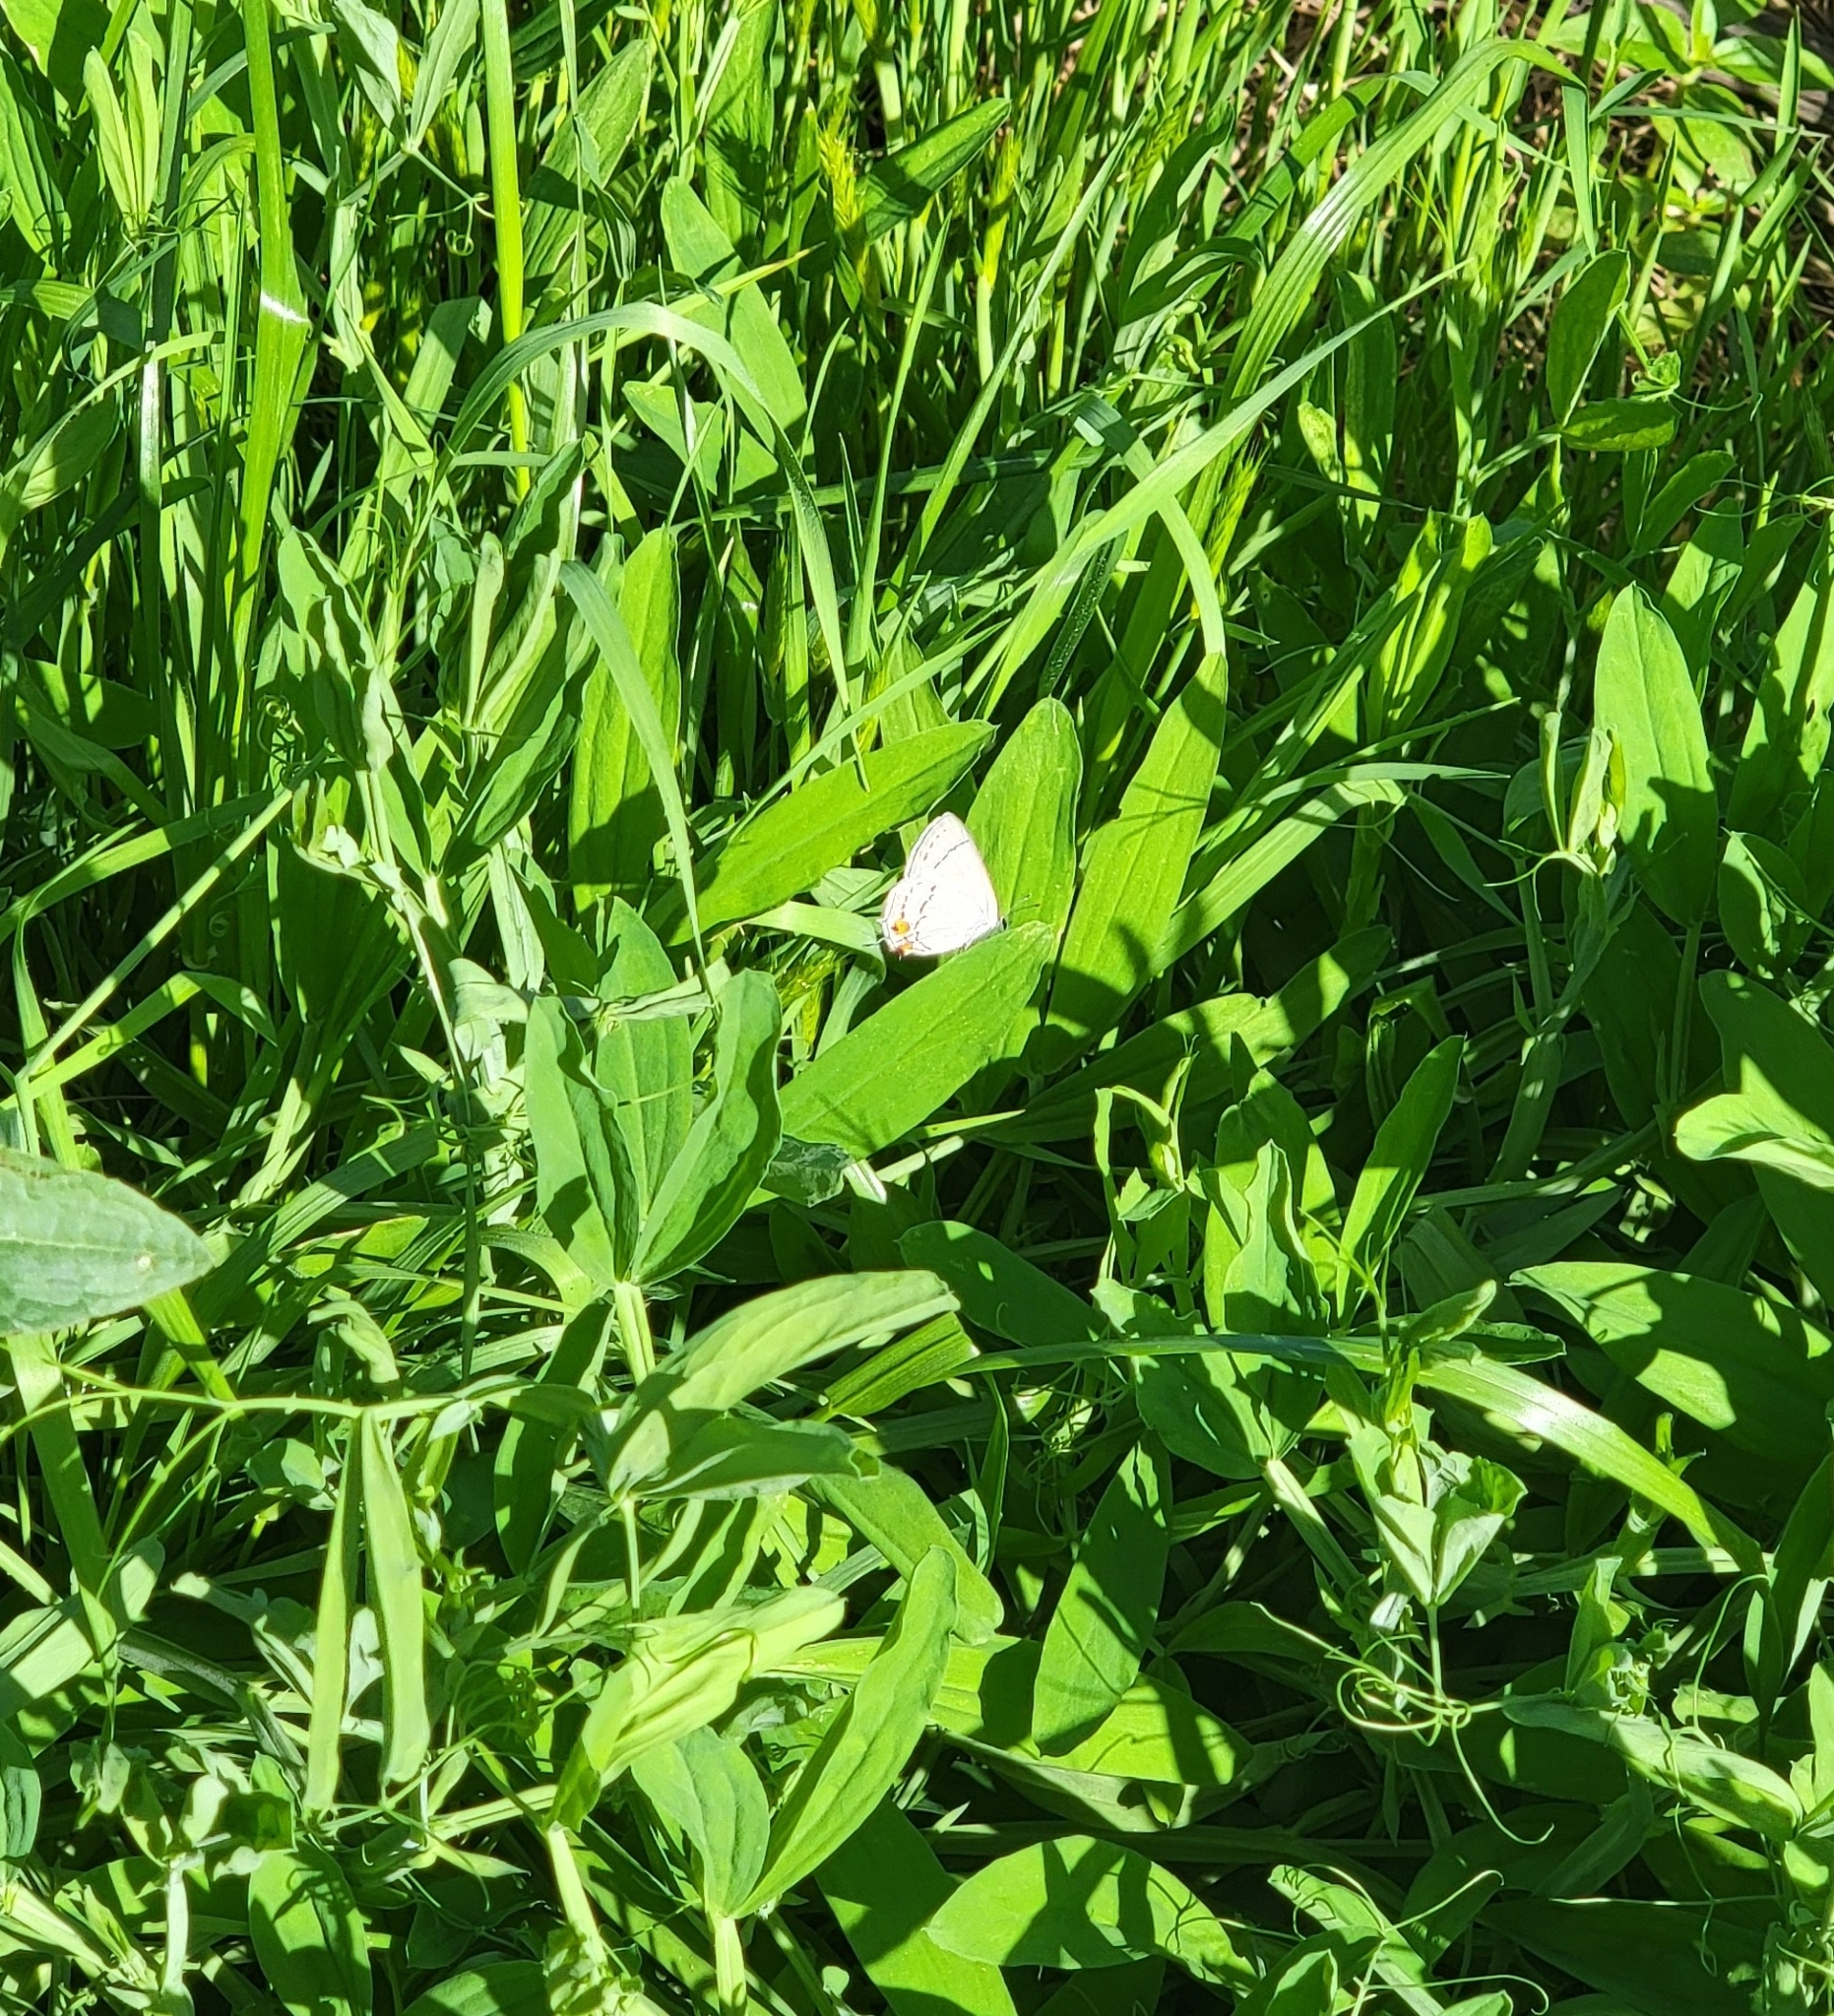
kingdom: Animalia
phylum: Arthropoda
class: Insecta
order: Lepidoptera
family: Lycaenidae
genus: Strymon
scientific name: Strymon melinus
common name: Gray hairstreak
